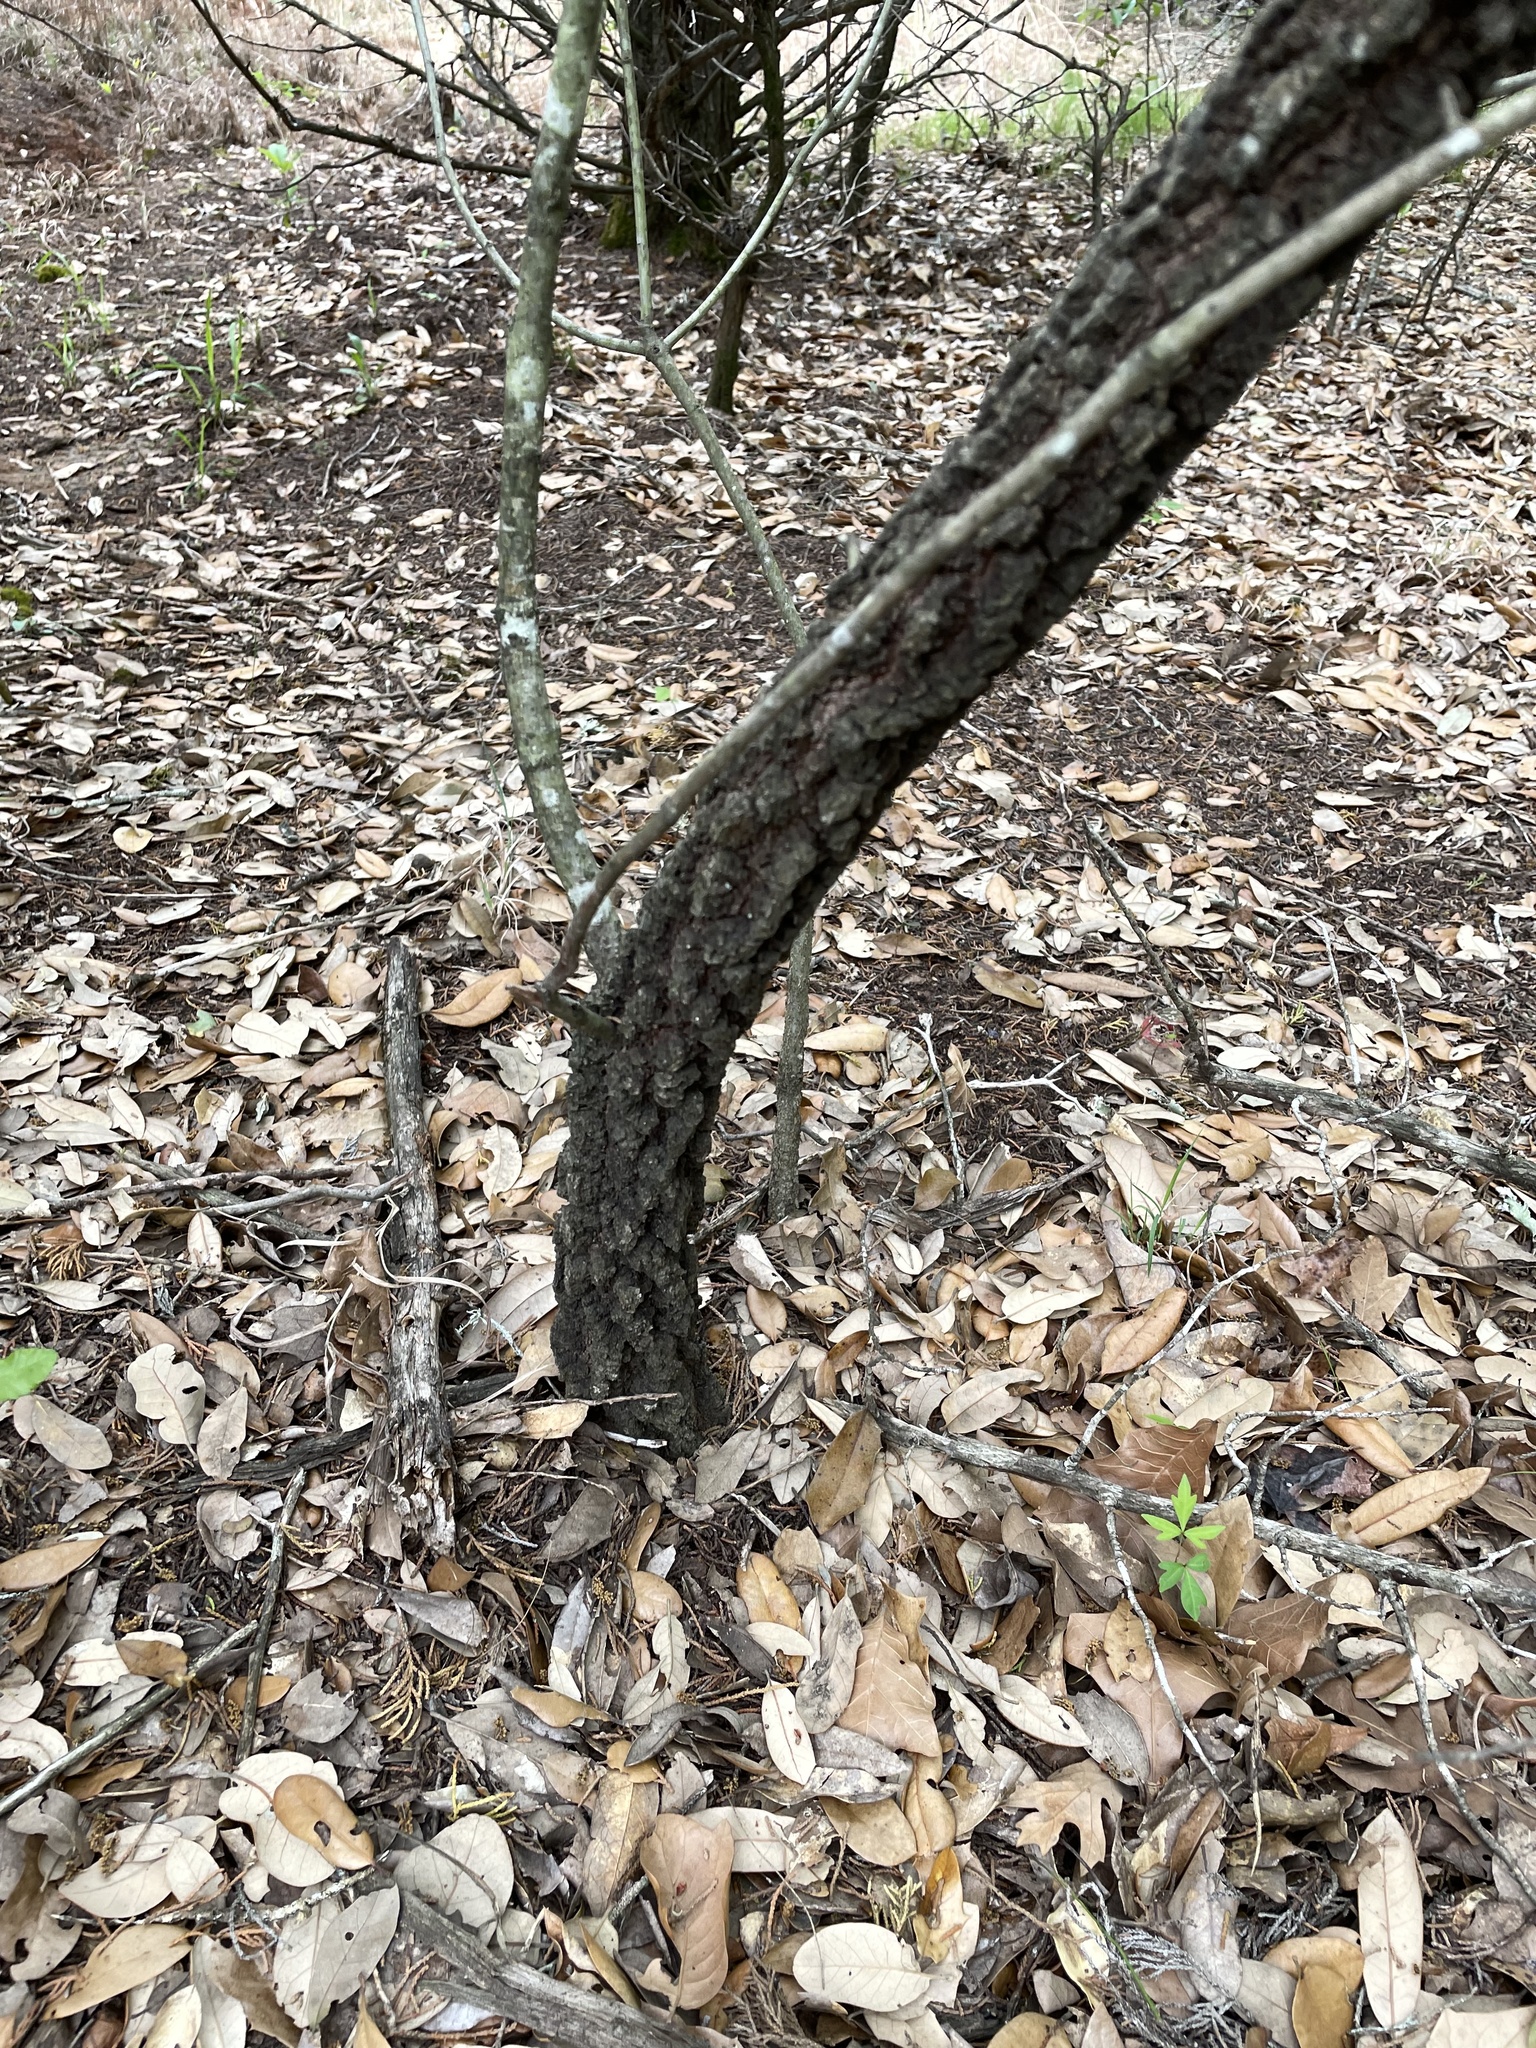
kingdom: Plantae
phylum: Tracheophyta
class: Magnoliopsida
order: Fagales
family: Fagaceae
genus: Quercus
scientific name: Quercus marilandica
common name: Blackjack oak
